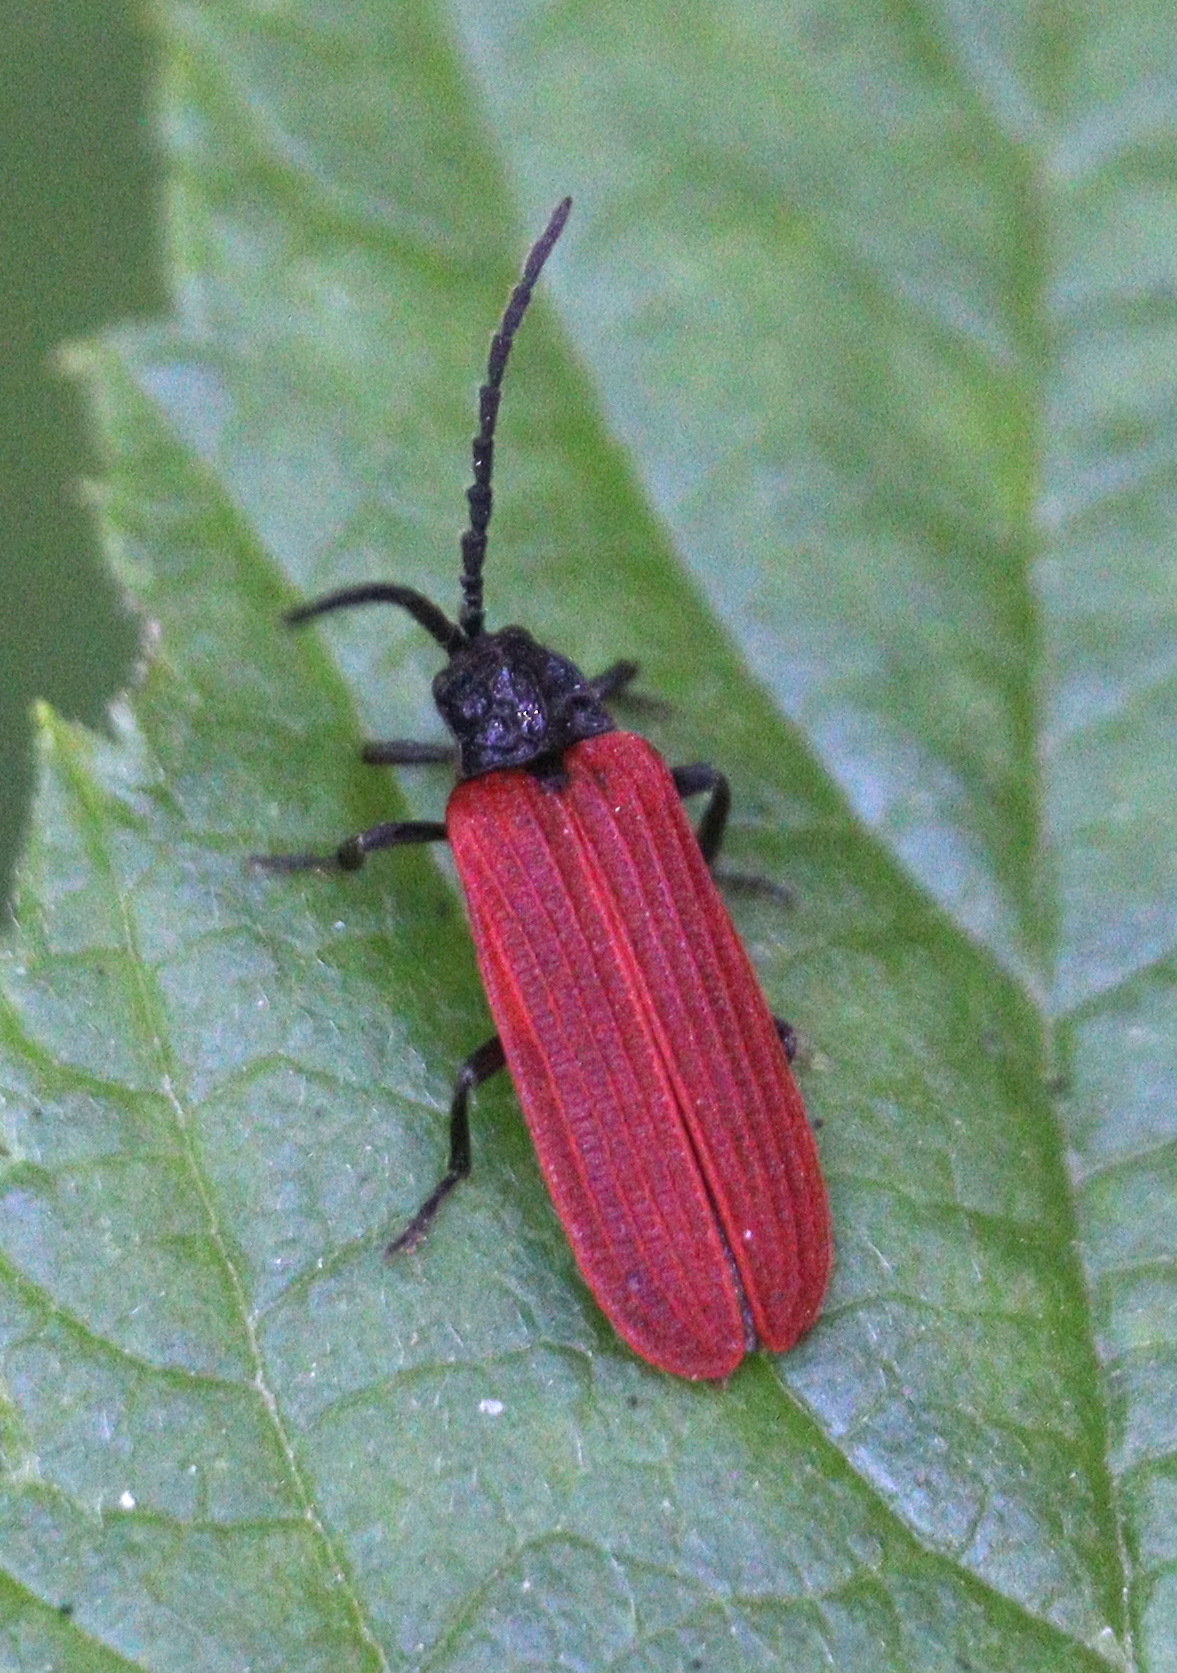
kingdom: Animalia
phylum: Arthropoda
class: Insecta
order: Coleoptera
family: Lycidae
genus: Pyropterus
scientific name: Pyropterus nigroruber
